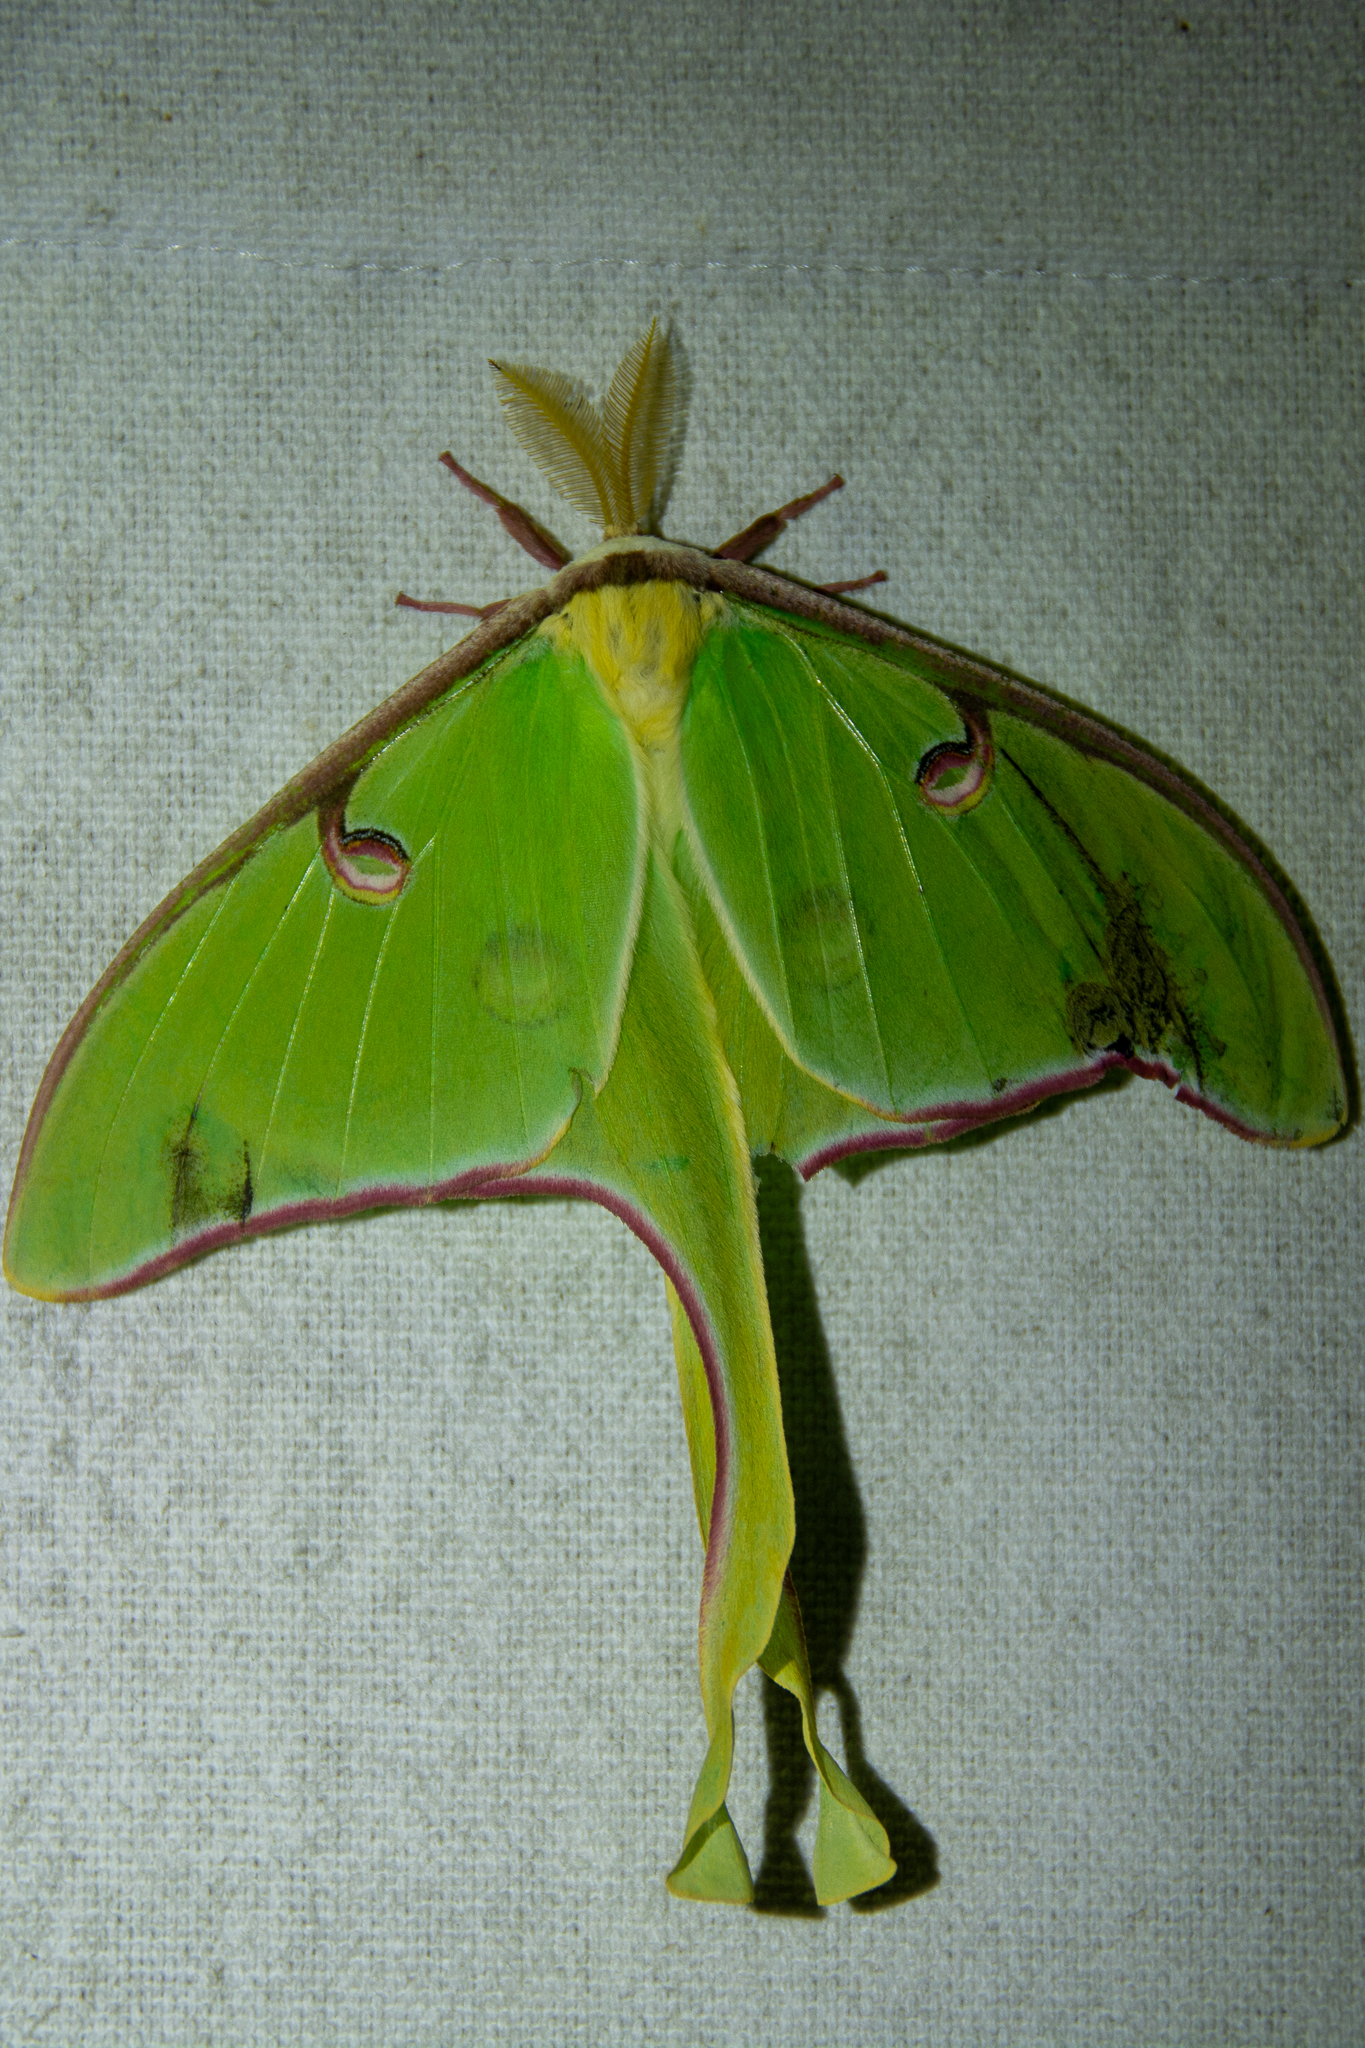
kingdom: Animalia
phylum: Arthropoda
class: Insecta
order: Lepidoptera
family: Saturniidae
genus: Actias
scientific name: Actias luna
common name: Luna moth
